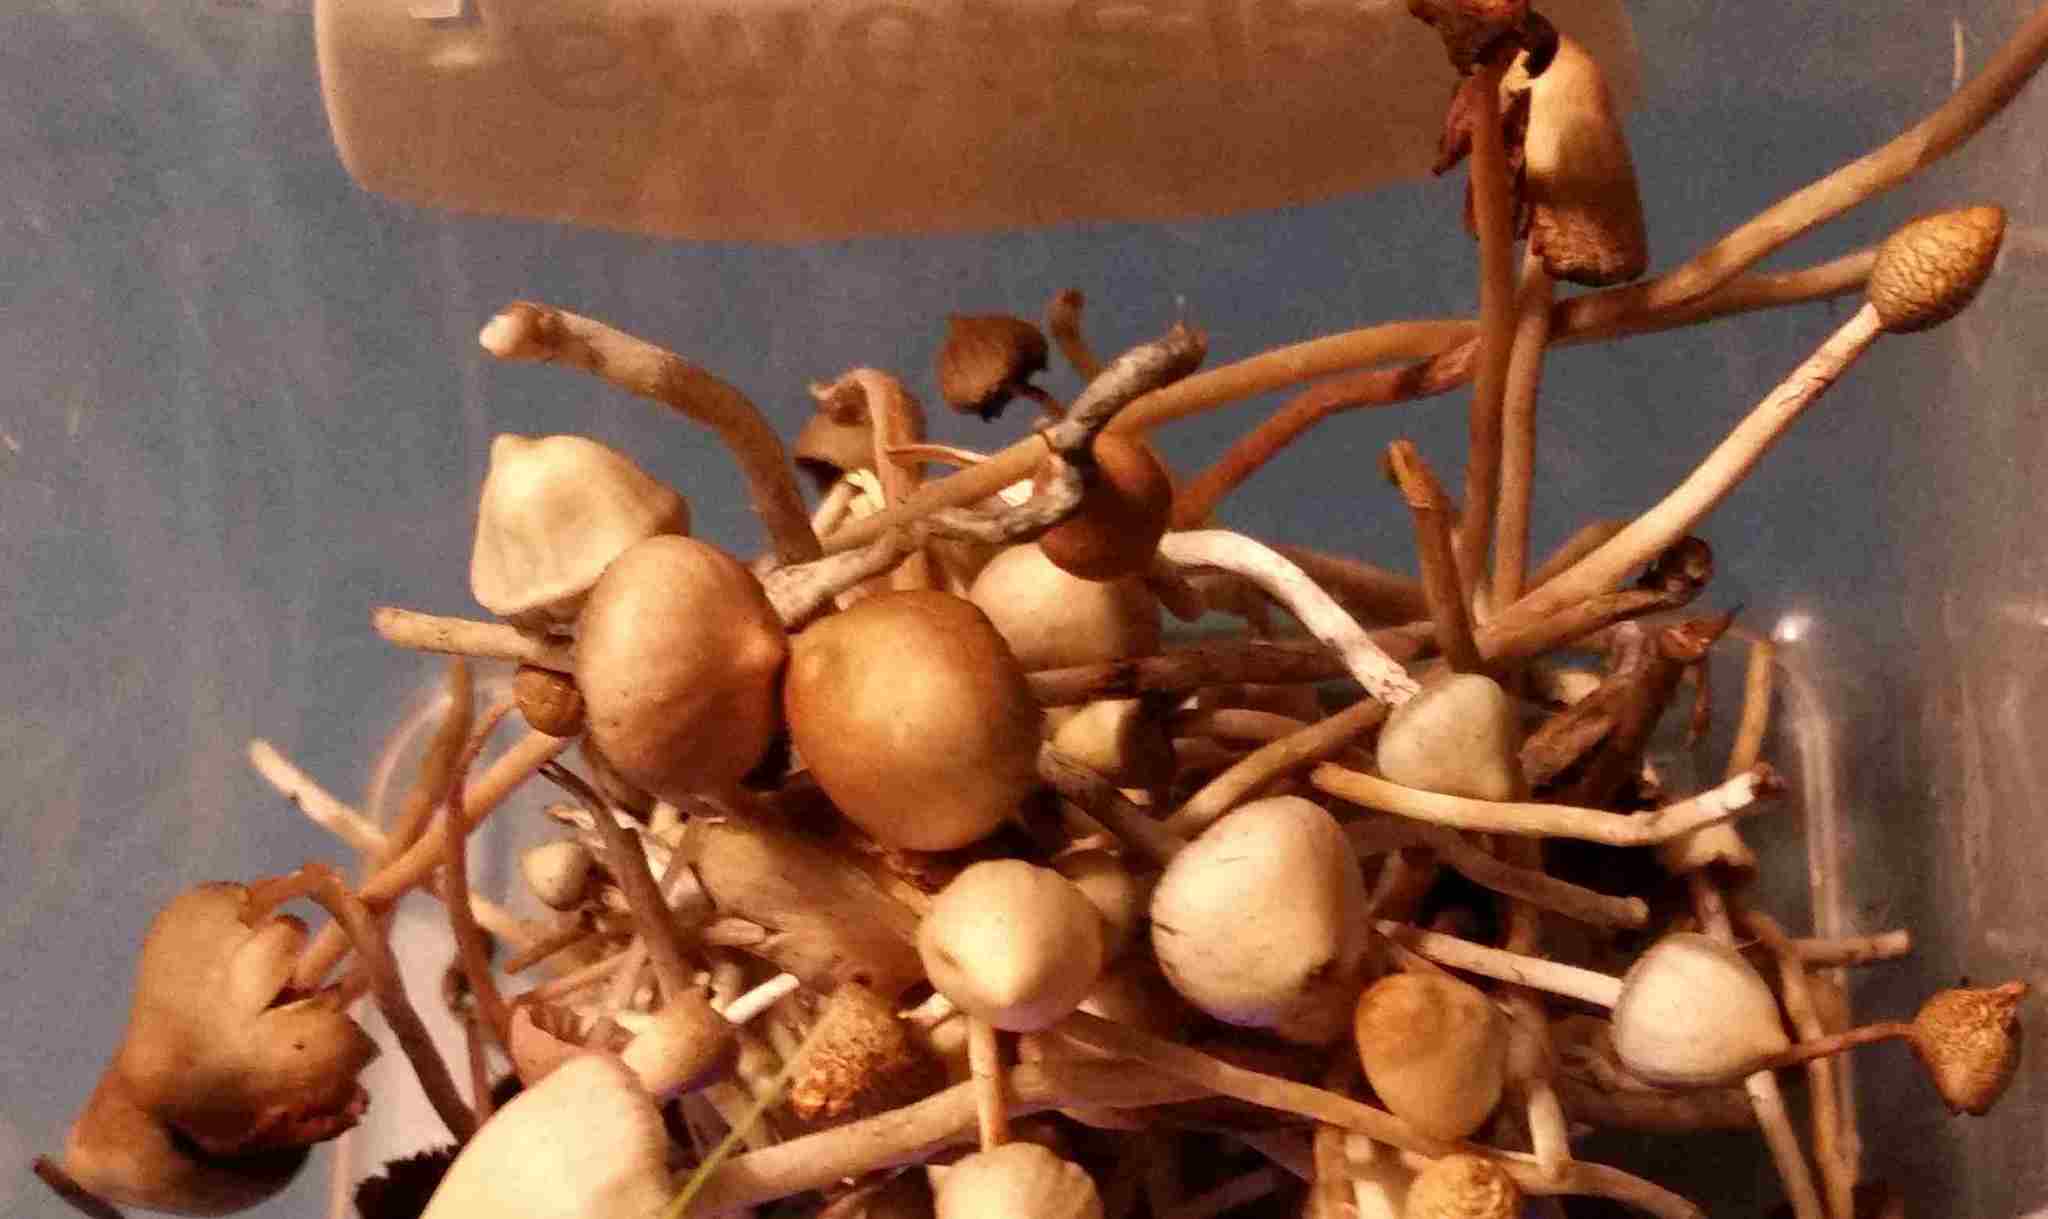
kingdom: Fungi
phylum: Basidiomycota
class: Agaricomycetes
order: Agaricales
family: Hymenogastraceae
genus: Psilocybe
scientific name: Psilocybe semilanceata
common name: Liberty cap
